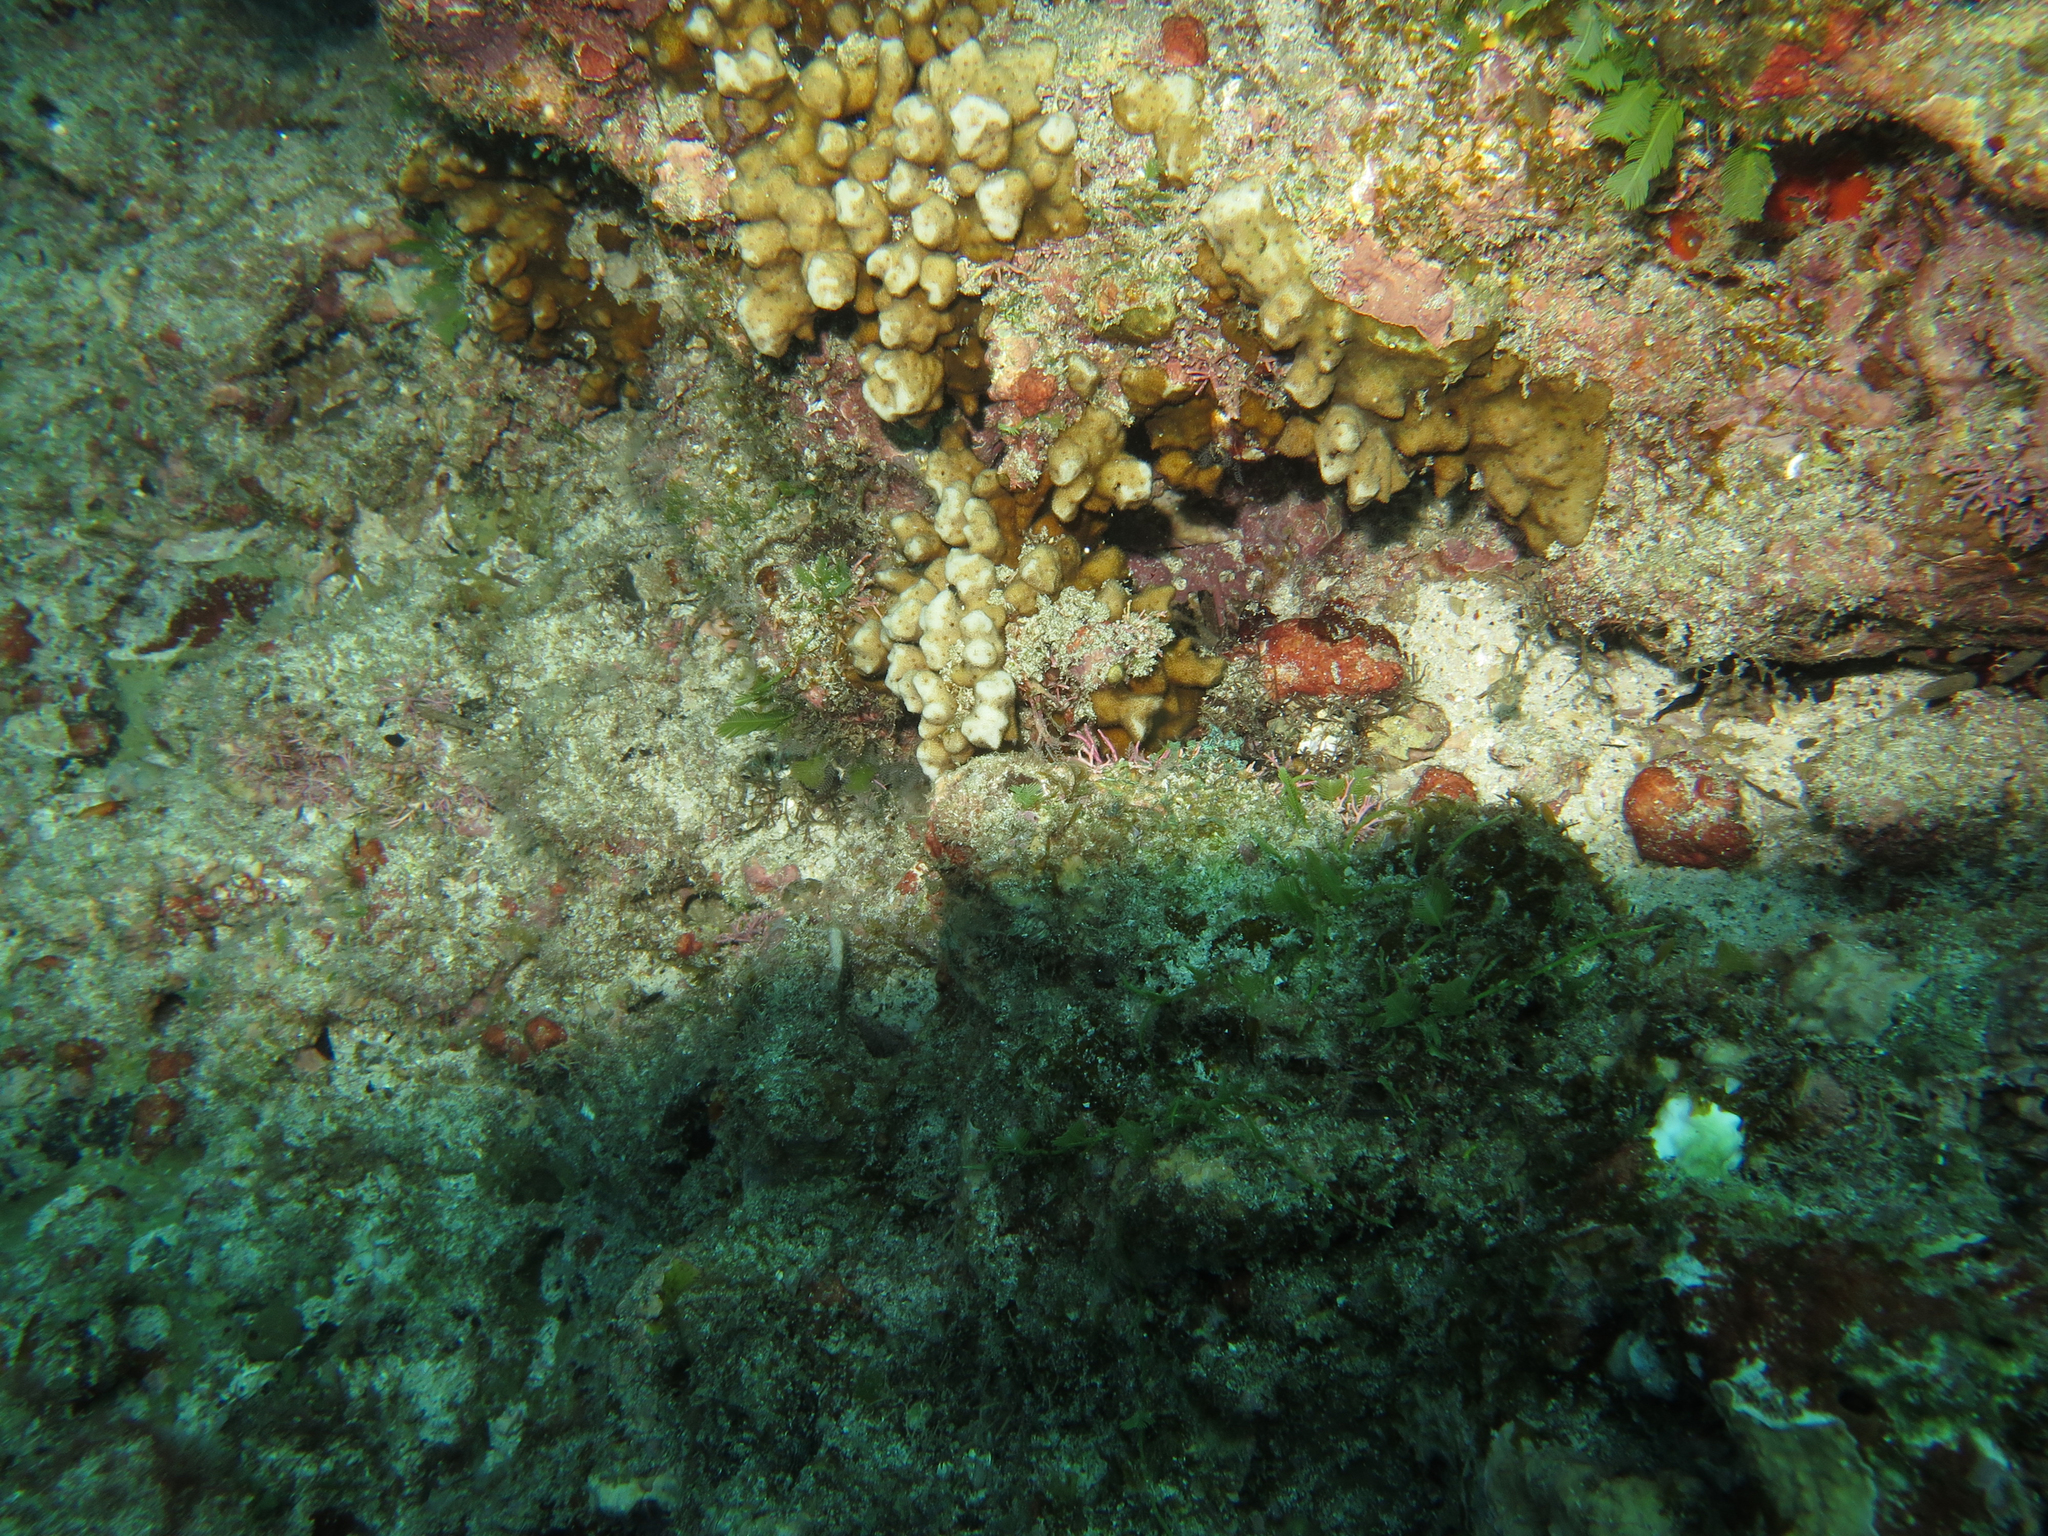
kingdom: Animalia
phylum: Cnidaria
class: Anthozoa
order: Scleractinia
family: Psammocoridae
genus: Psammocora
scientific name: Psammocora stellata
